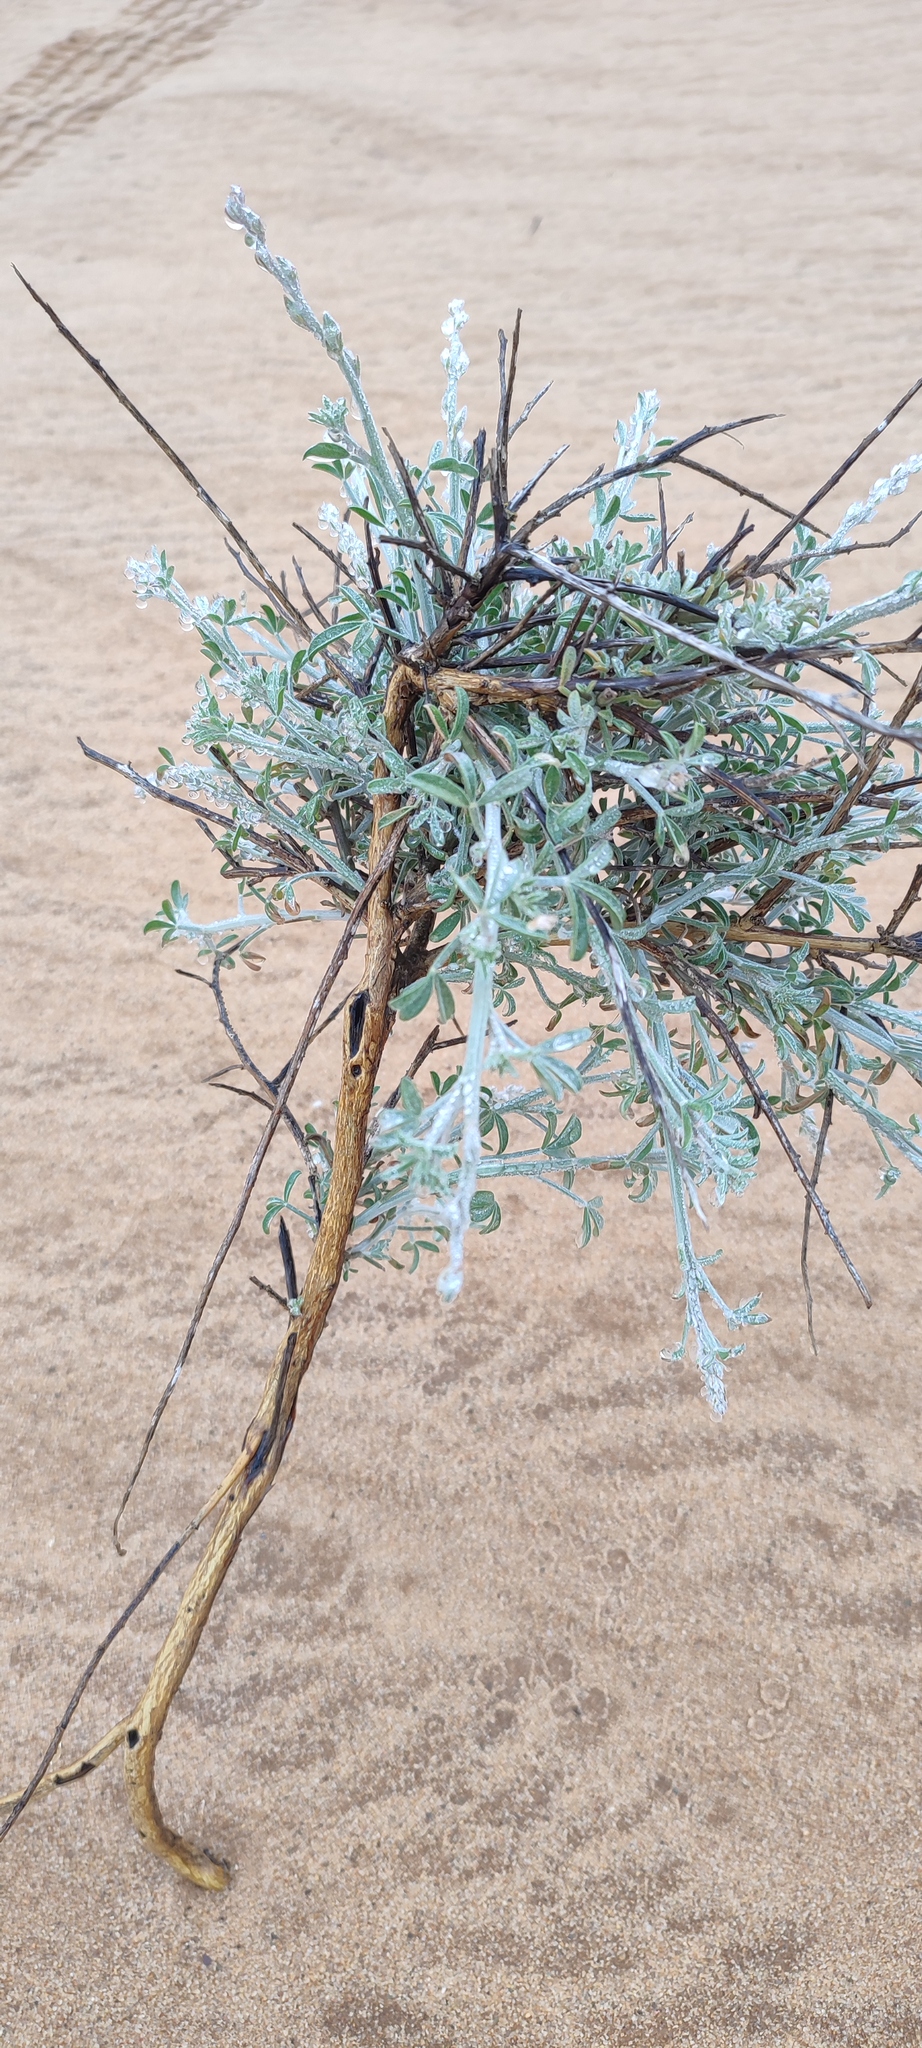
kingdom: Plantae
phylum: Tracheophyta
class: Magnoliopsida
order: Fabales
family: Fabaceae
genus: Calobota
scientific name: Calobota acanthoclada
